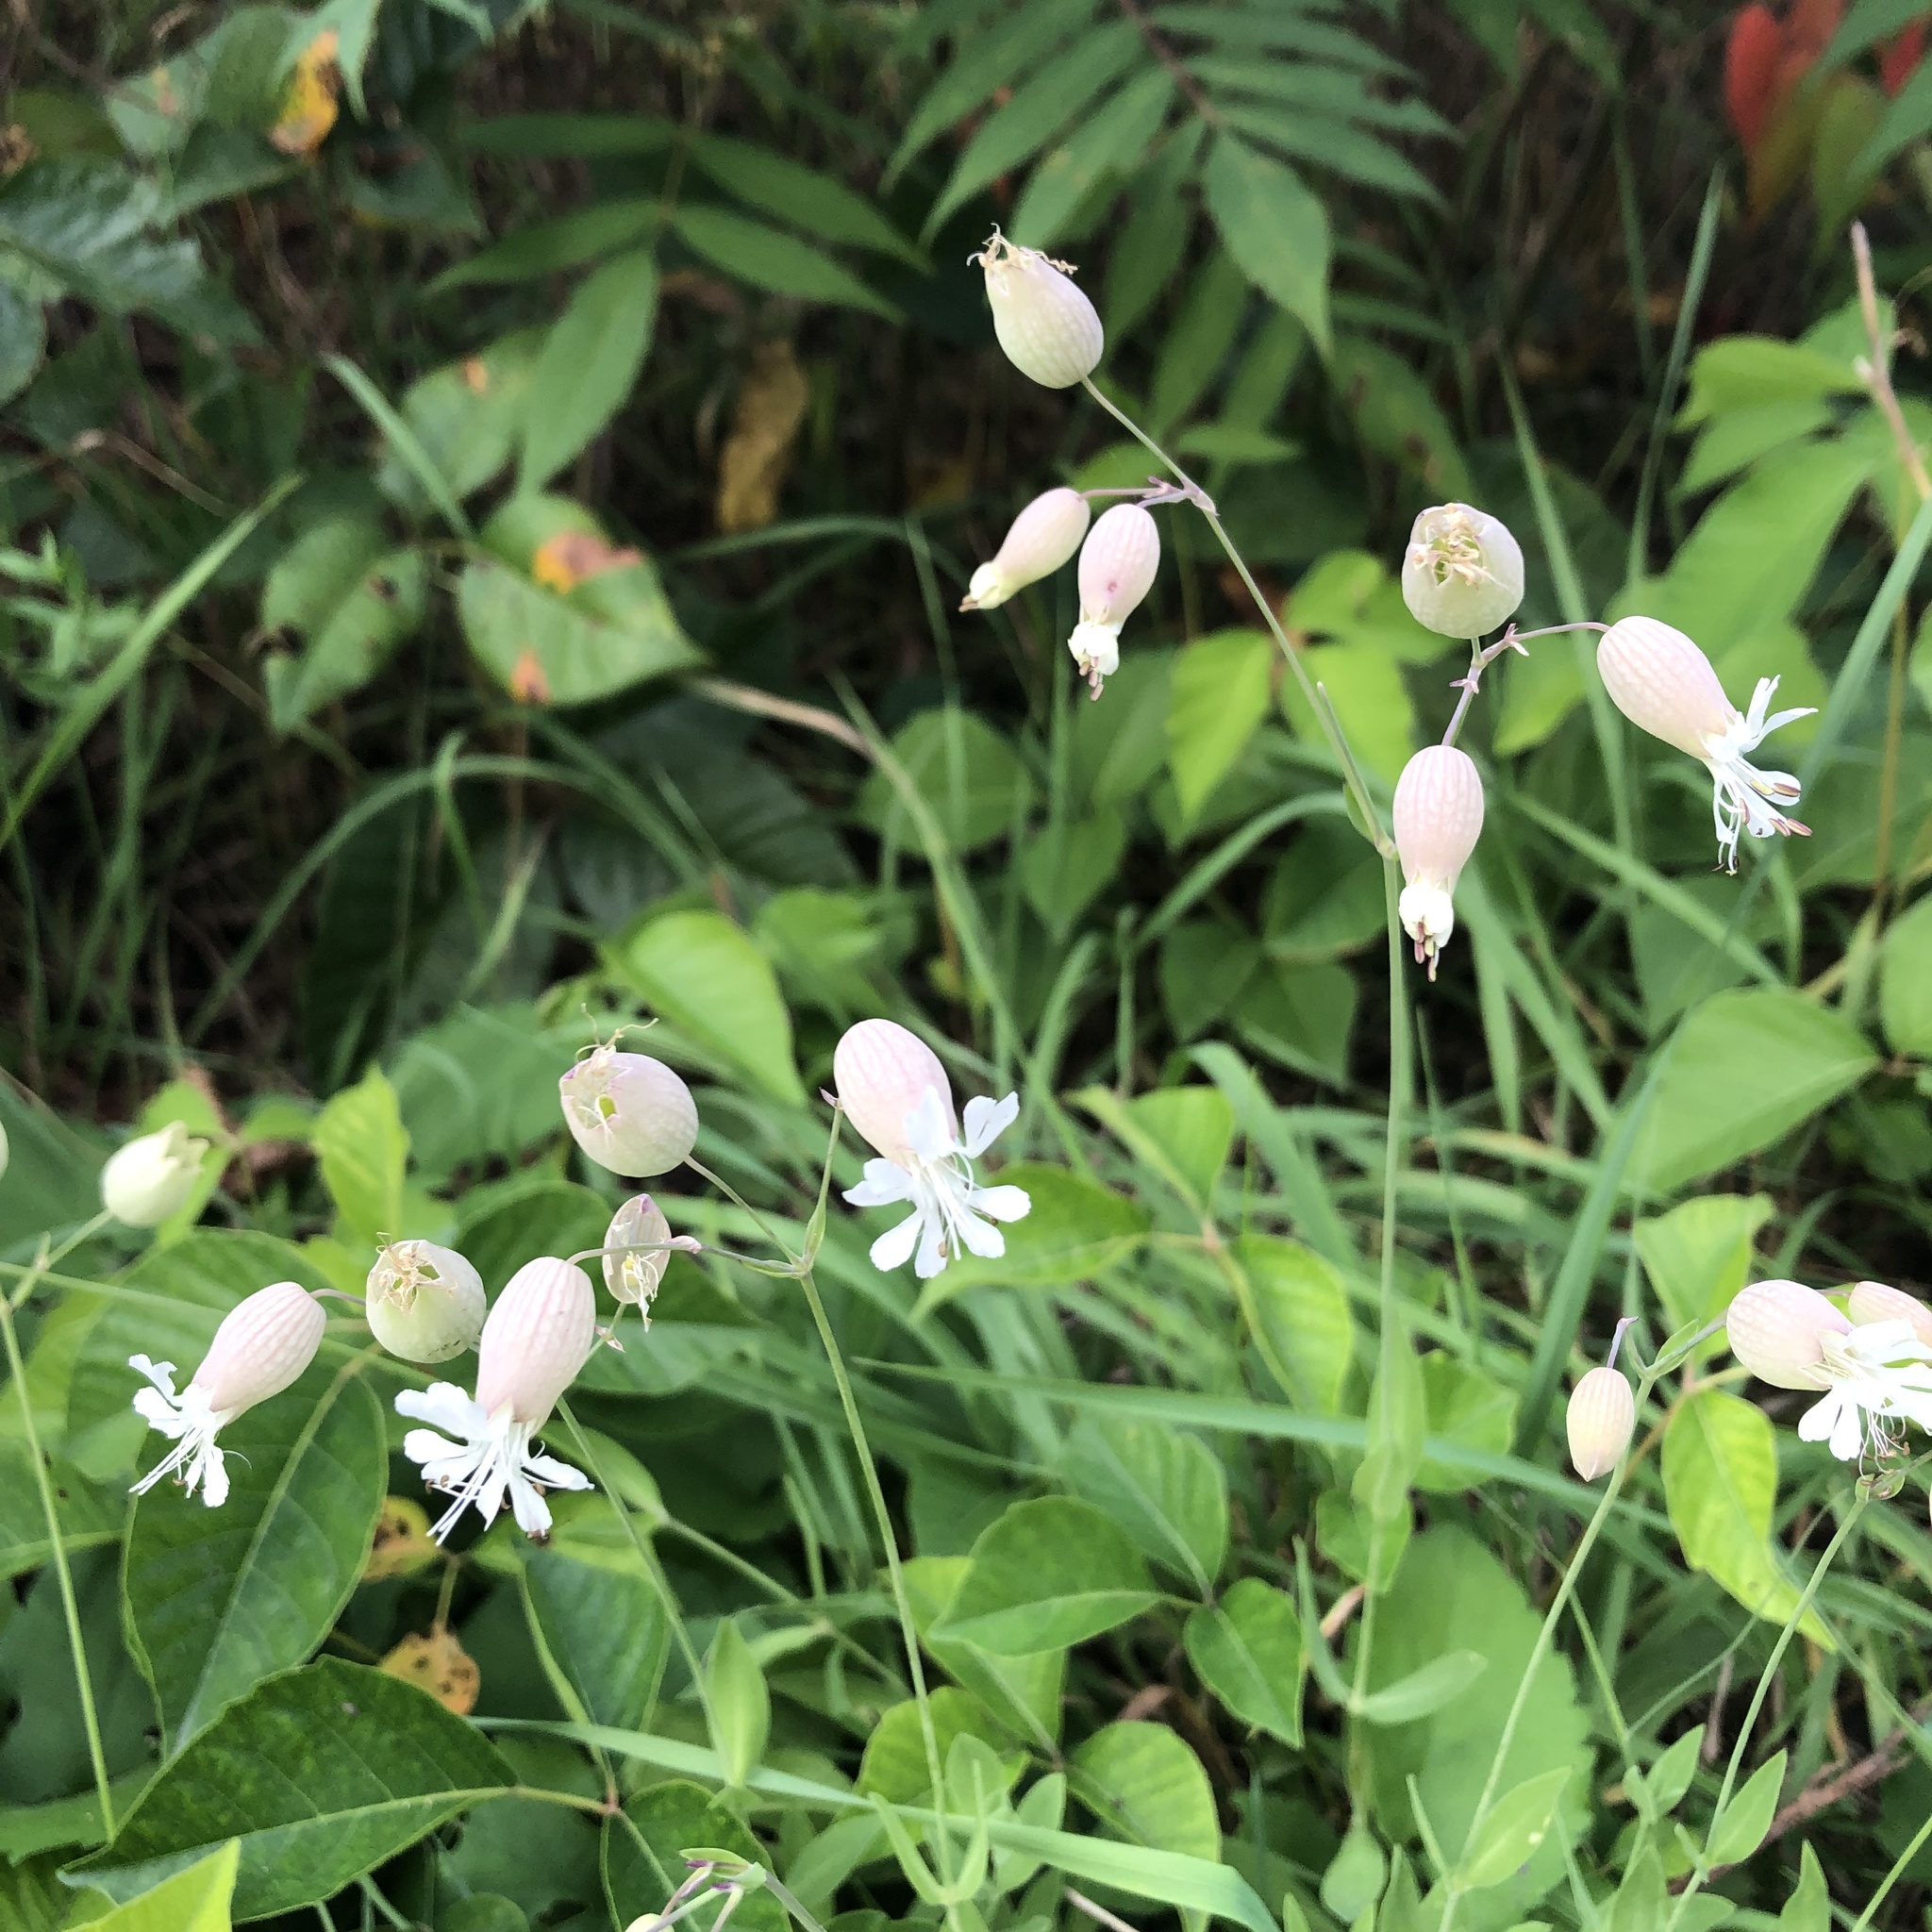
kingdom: Plantae
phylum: Tracheophyta
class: Magnoliopsida
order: Caryophyllales
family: Caryophyllaceae
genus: Silene
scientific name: Silene vulgaris
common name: Bladder campion
